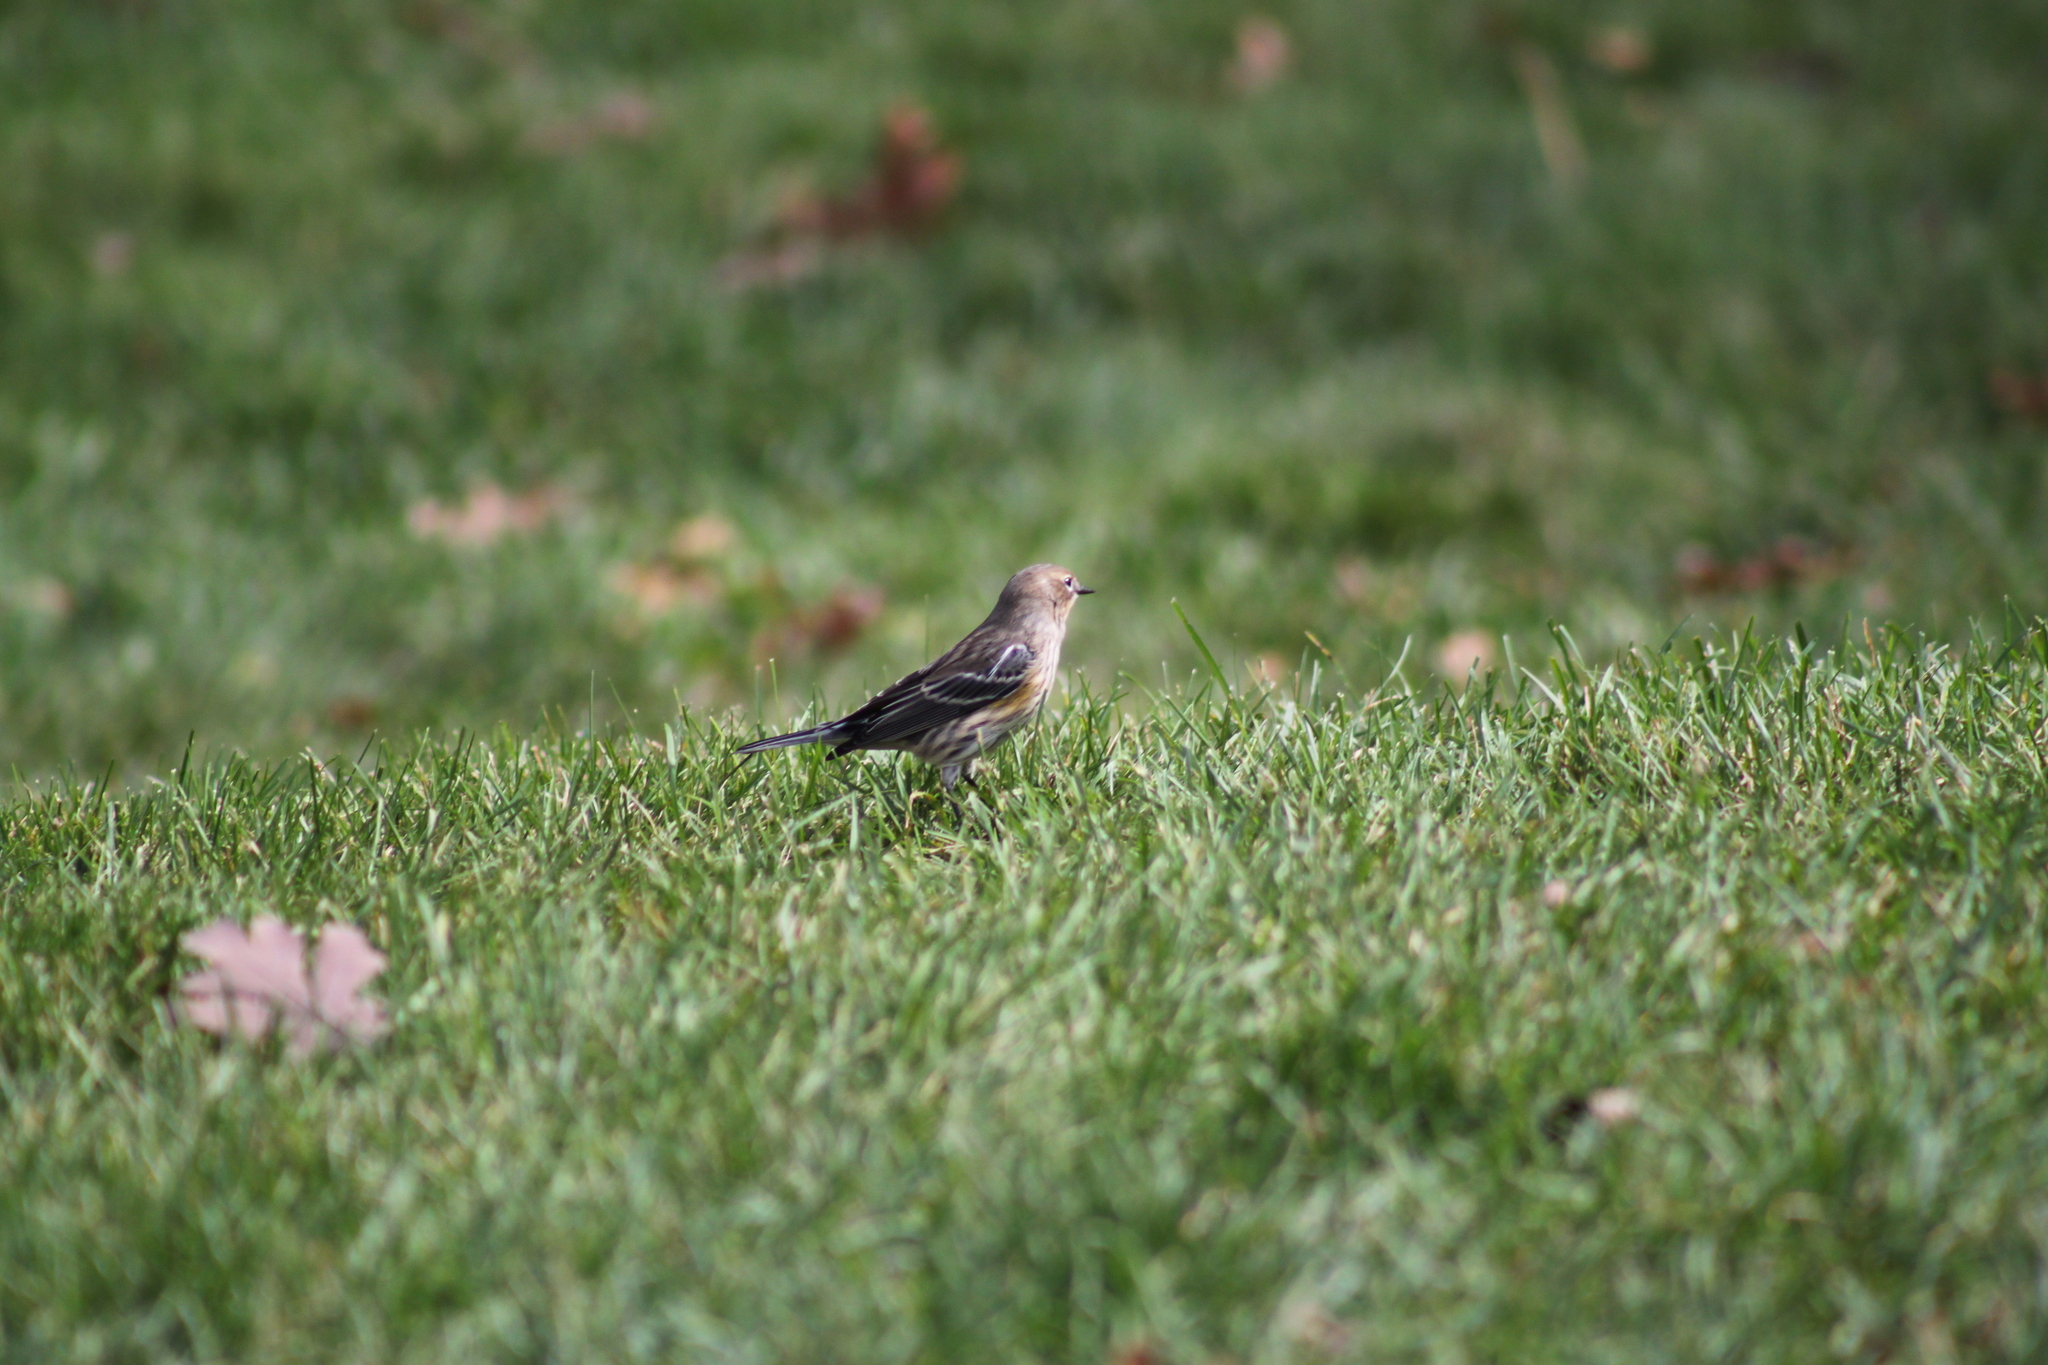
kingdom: Animalia
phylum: Chordata
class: Aves
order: Passeriformes
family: Parulidae
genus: Setophaga
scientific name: Setophaga coronata
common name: Myrtle warbler
